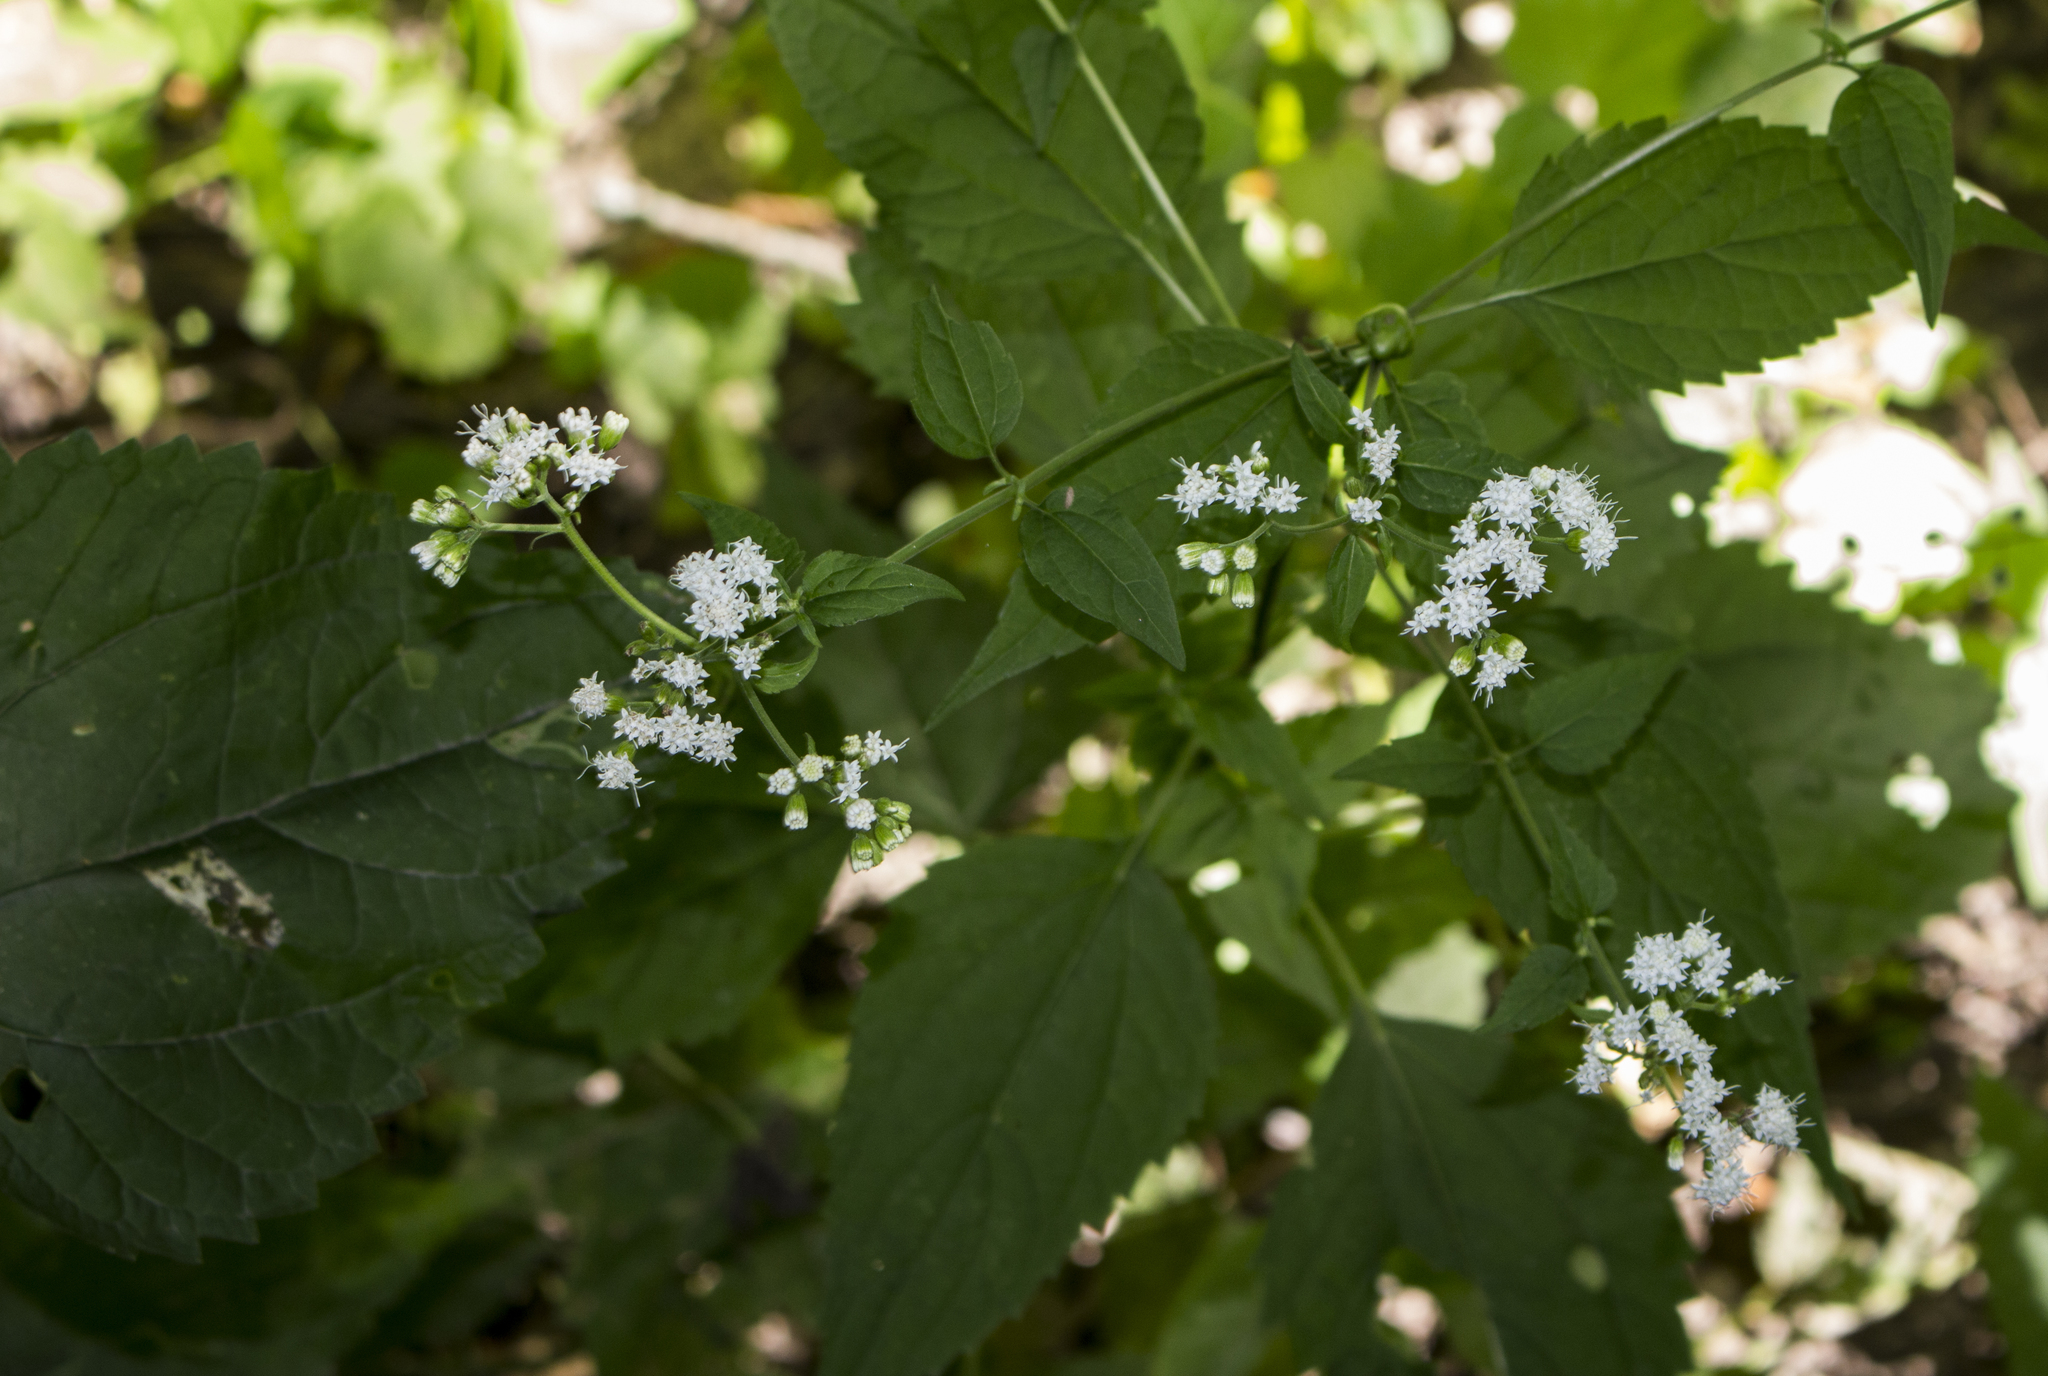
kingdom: Plantae
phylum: Tracheophyta
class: Magnoliopsida
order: Asterales
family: Asteraceae
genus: Ageratina
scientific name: Ageratina altissima
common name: White snakeroot
